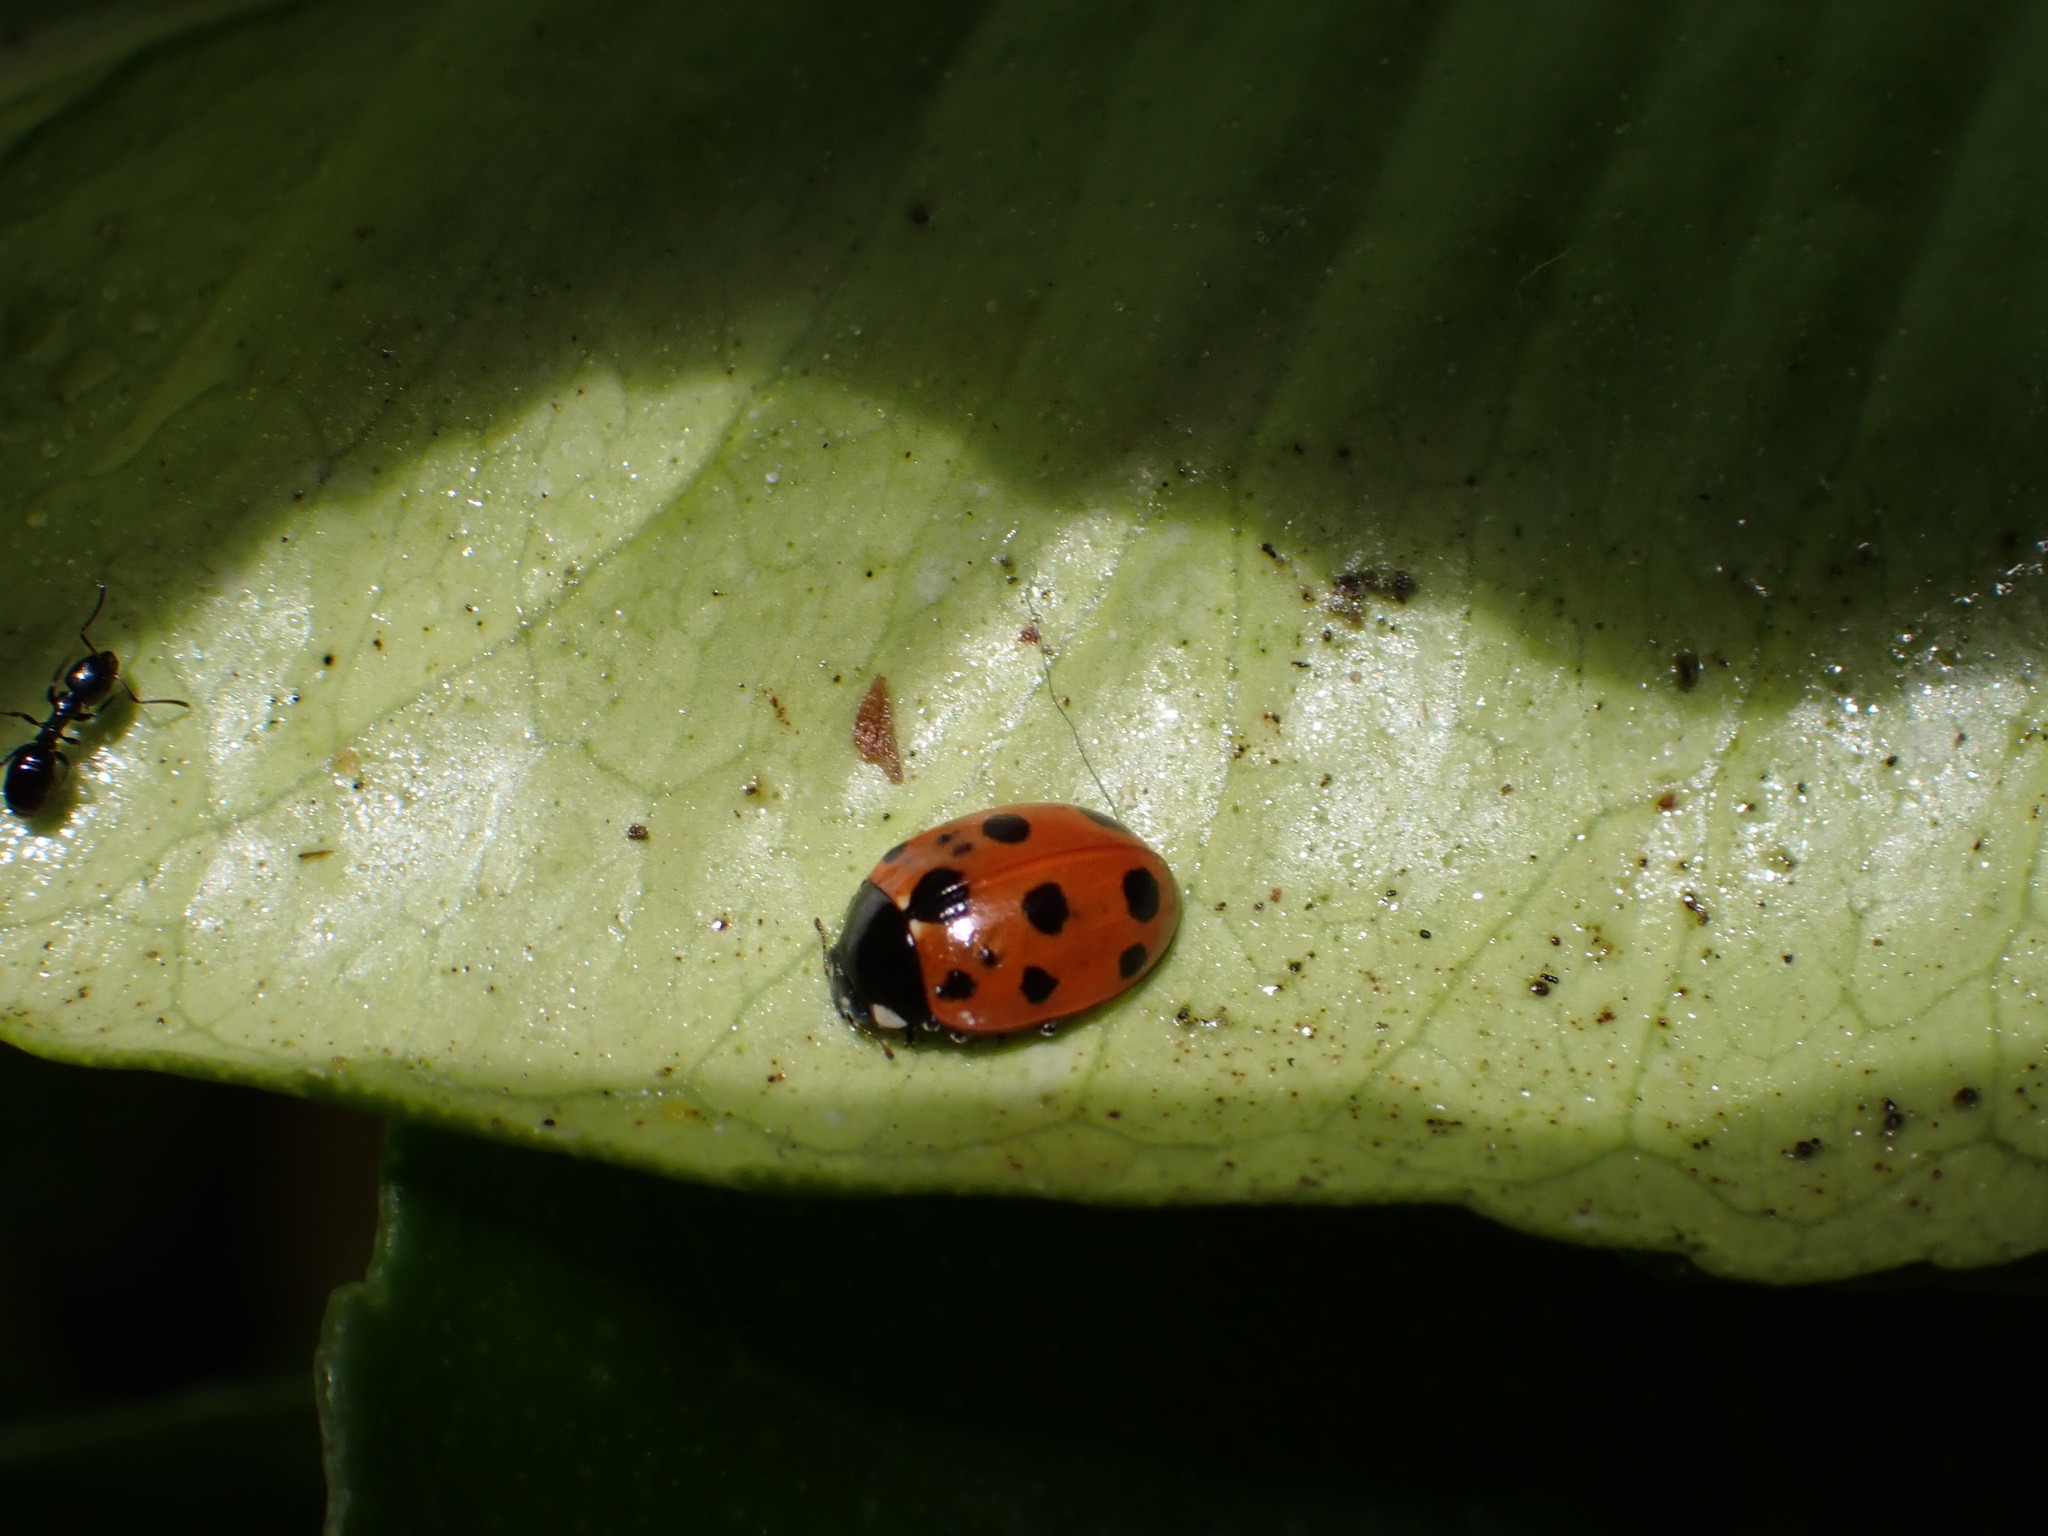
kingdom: Animalia
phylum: Arthropoda
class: Insecta
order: Coleoptera
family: Coccinellidae
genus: Coccinella
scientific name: Coccinella undecimpunctata
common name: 11-spot ladybird
